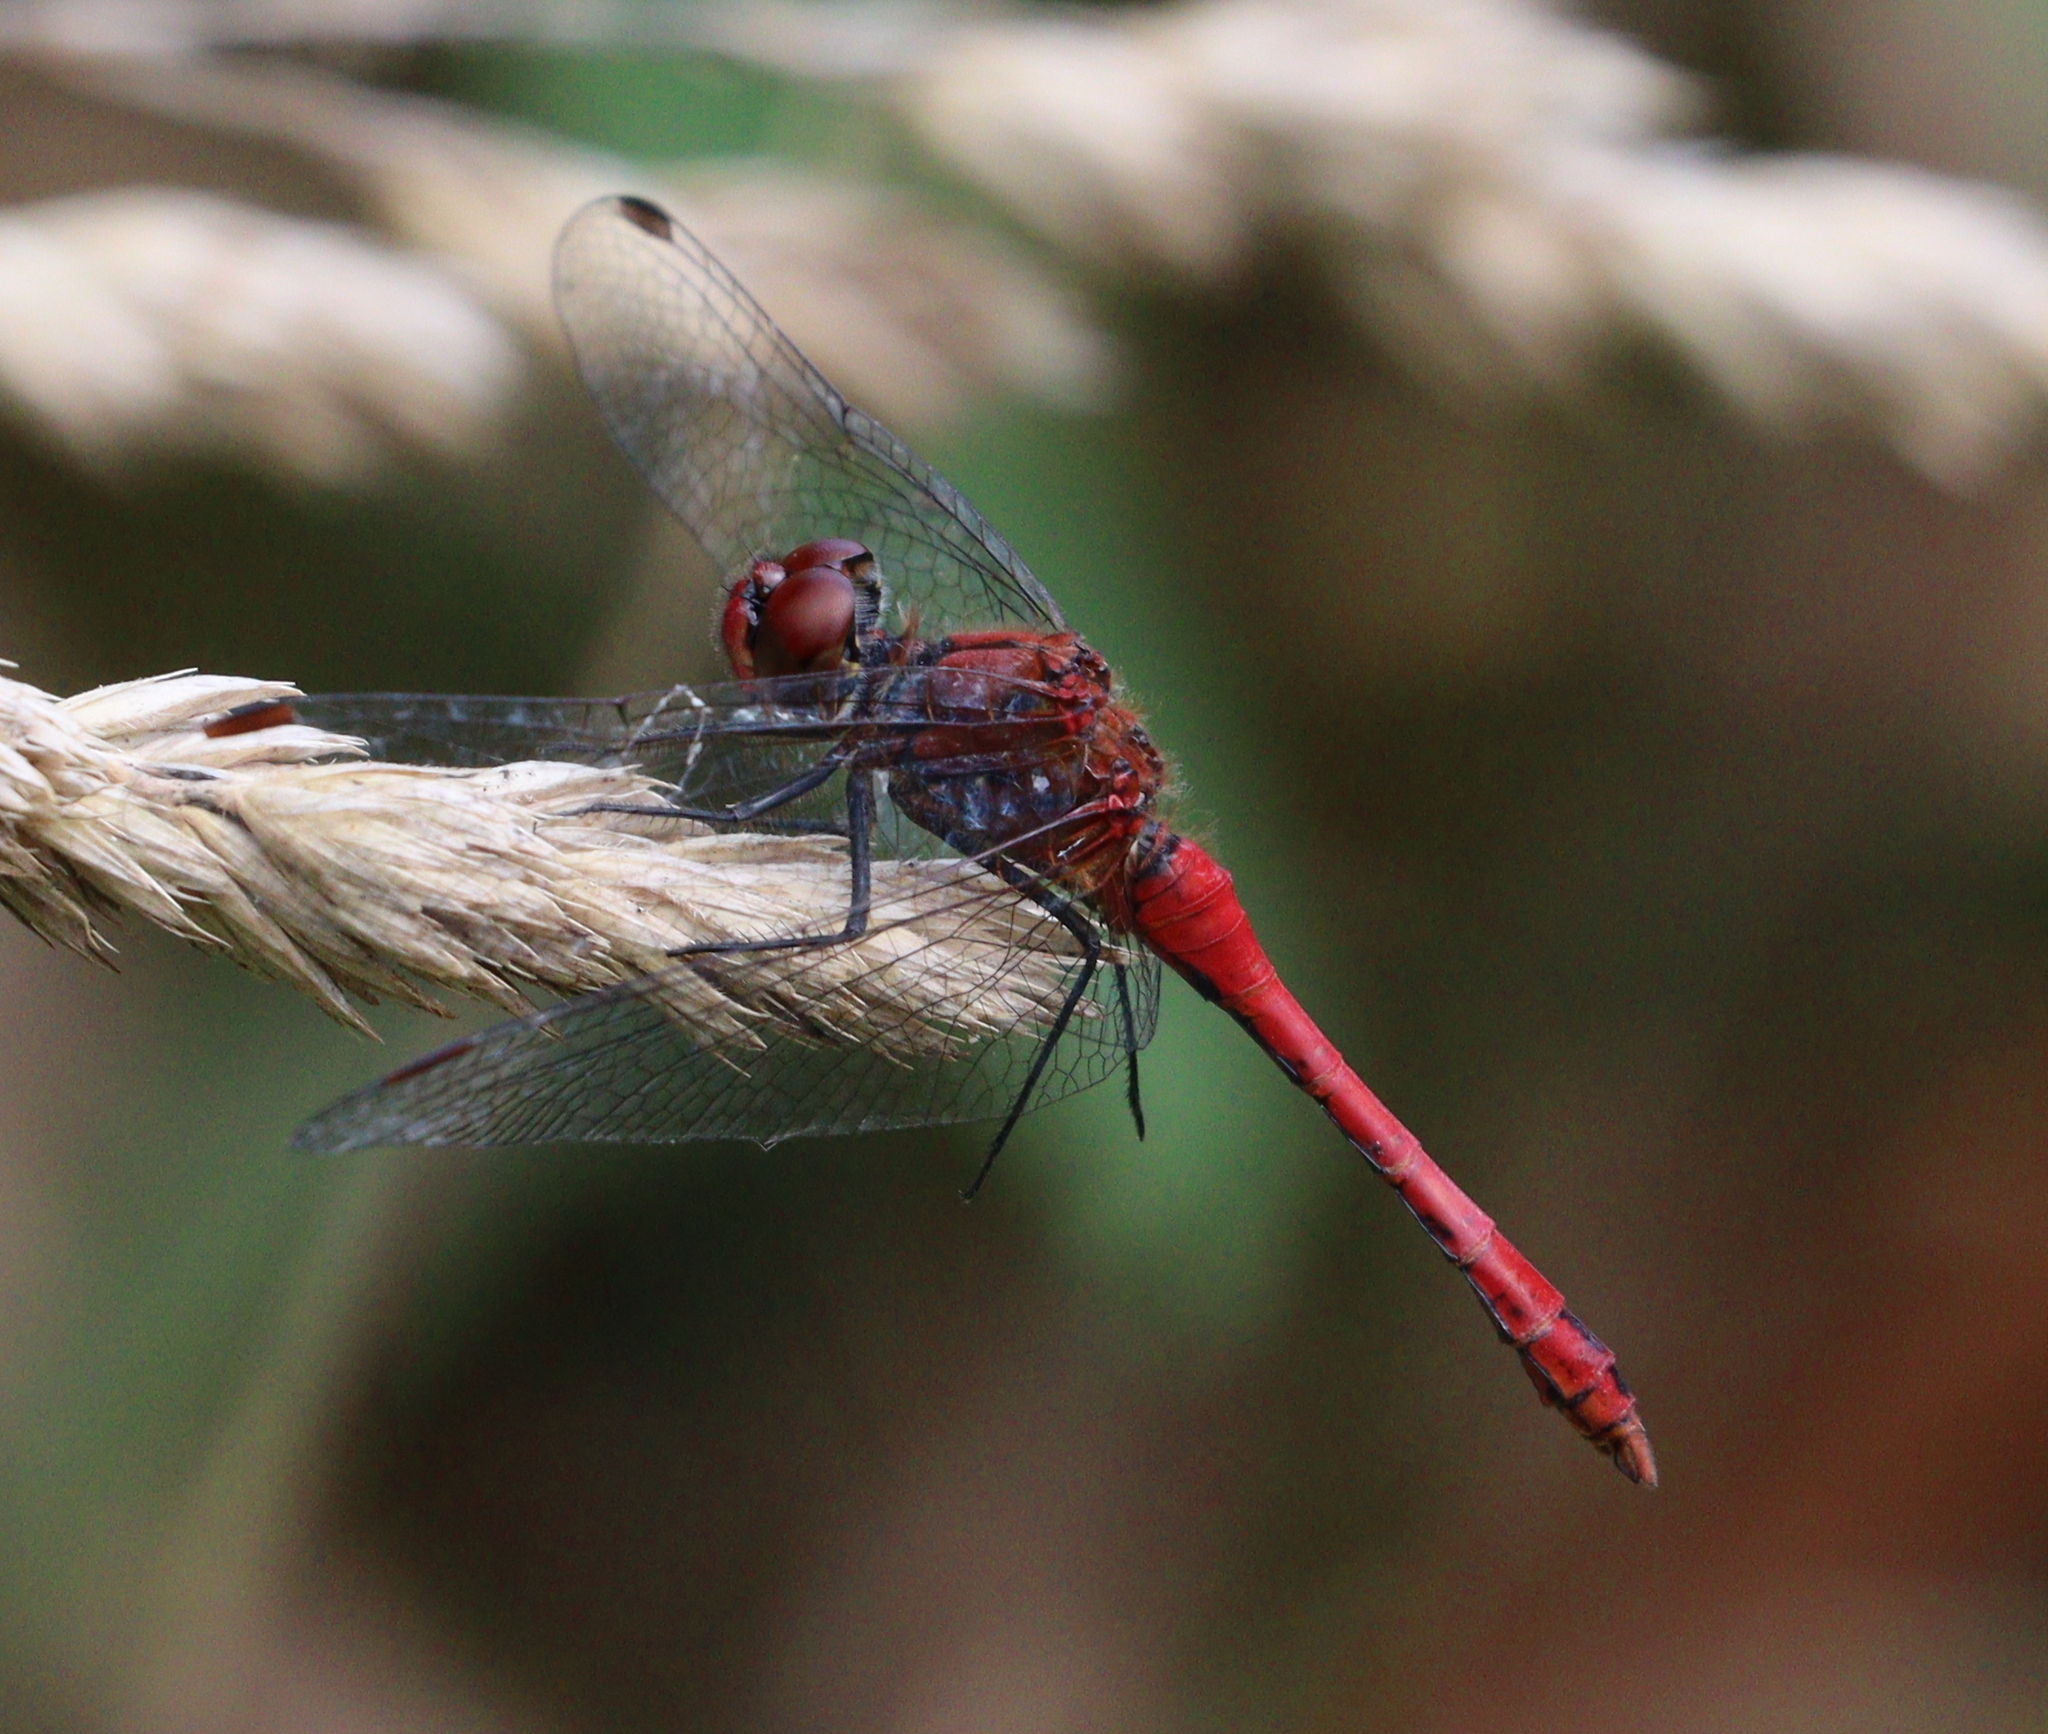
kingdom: Animalia
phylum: Arthropoda
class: Insecta
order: Odonata
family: Libellulidae
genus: Sympetrum
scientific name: Sympetrum sanguineum
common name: Ruddy darter
